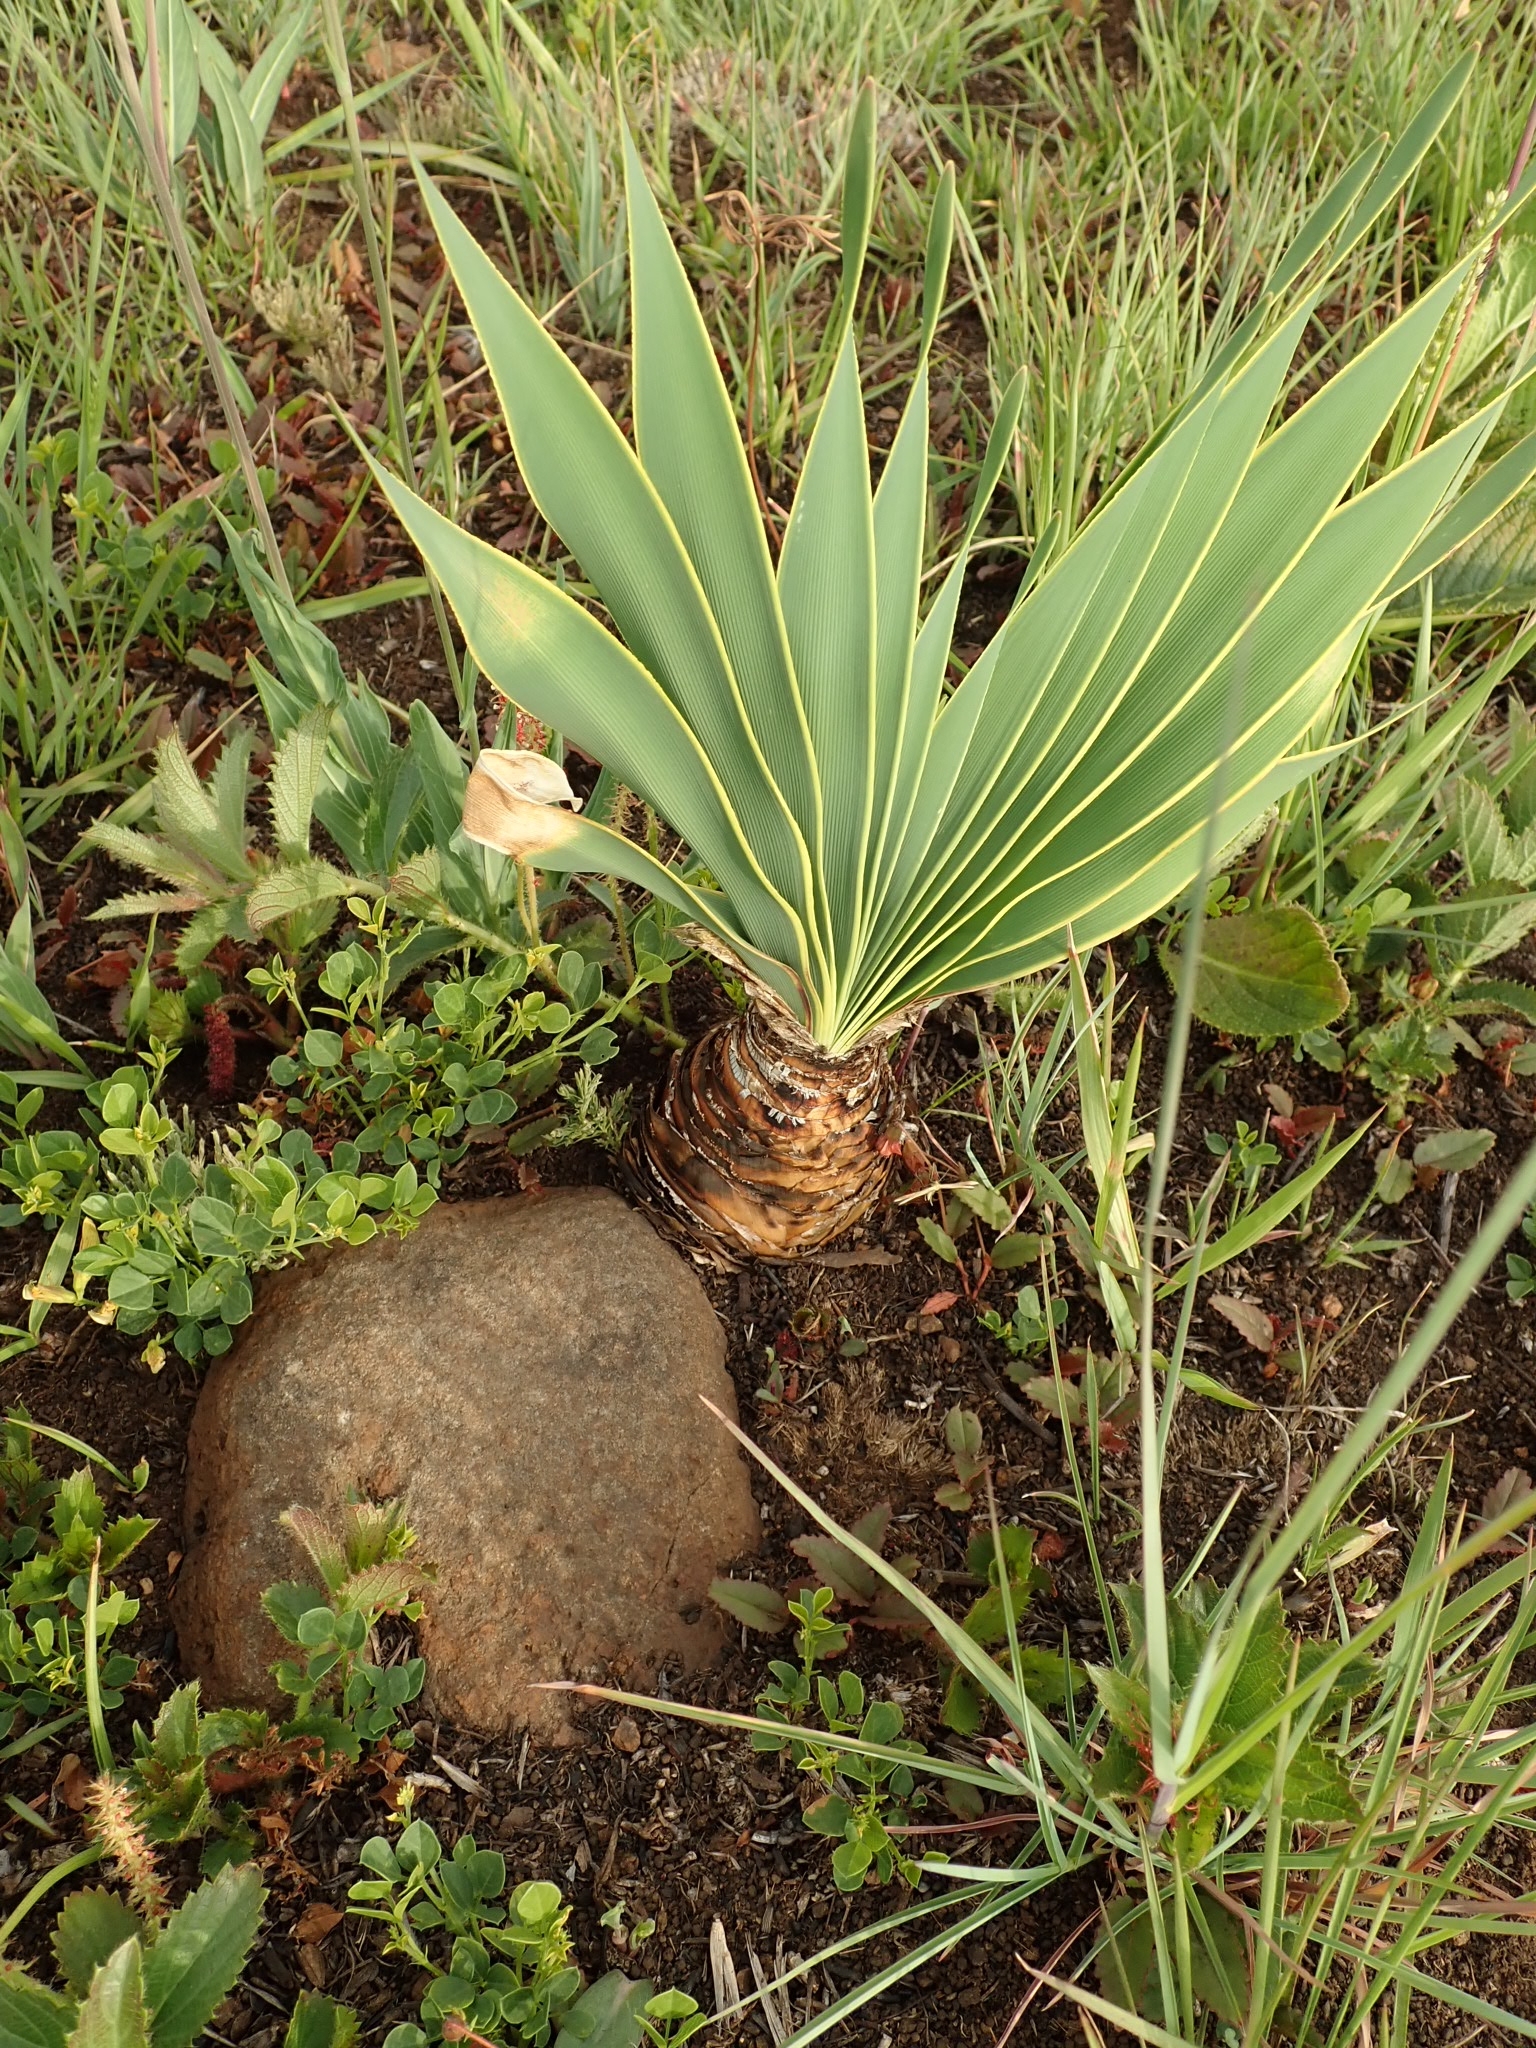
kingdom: Plantae
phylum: Tracheophyta
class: Liliopsida
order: Asparagales
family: Amaryllidaceae
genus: Boophone
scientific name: Boophone disticha
